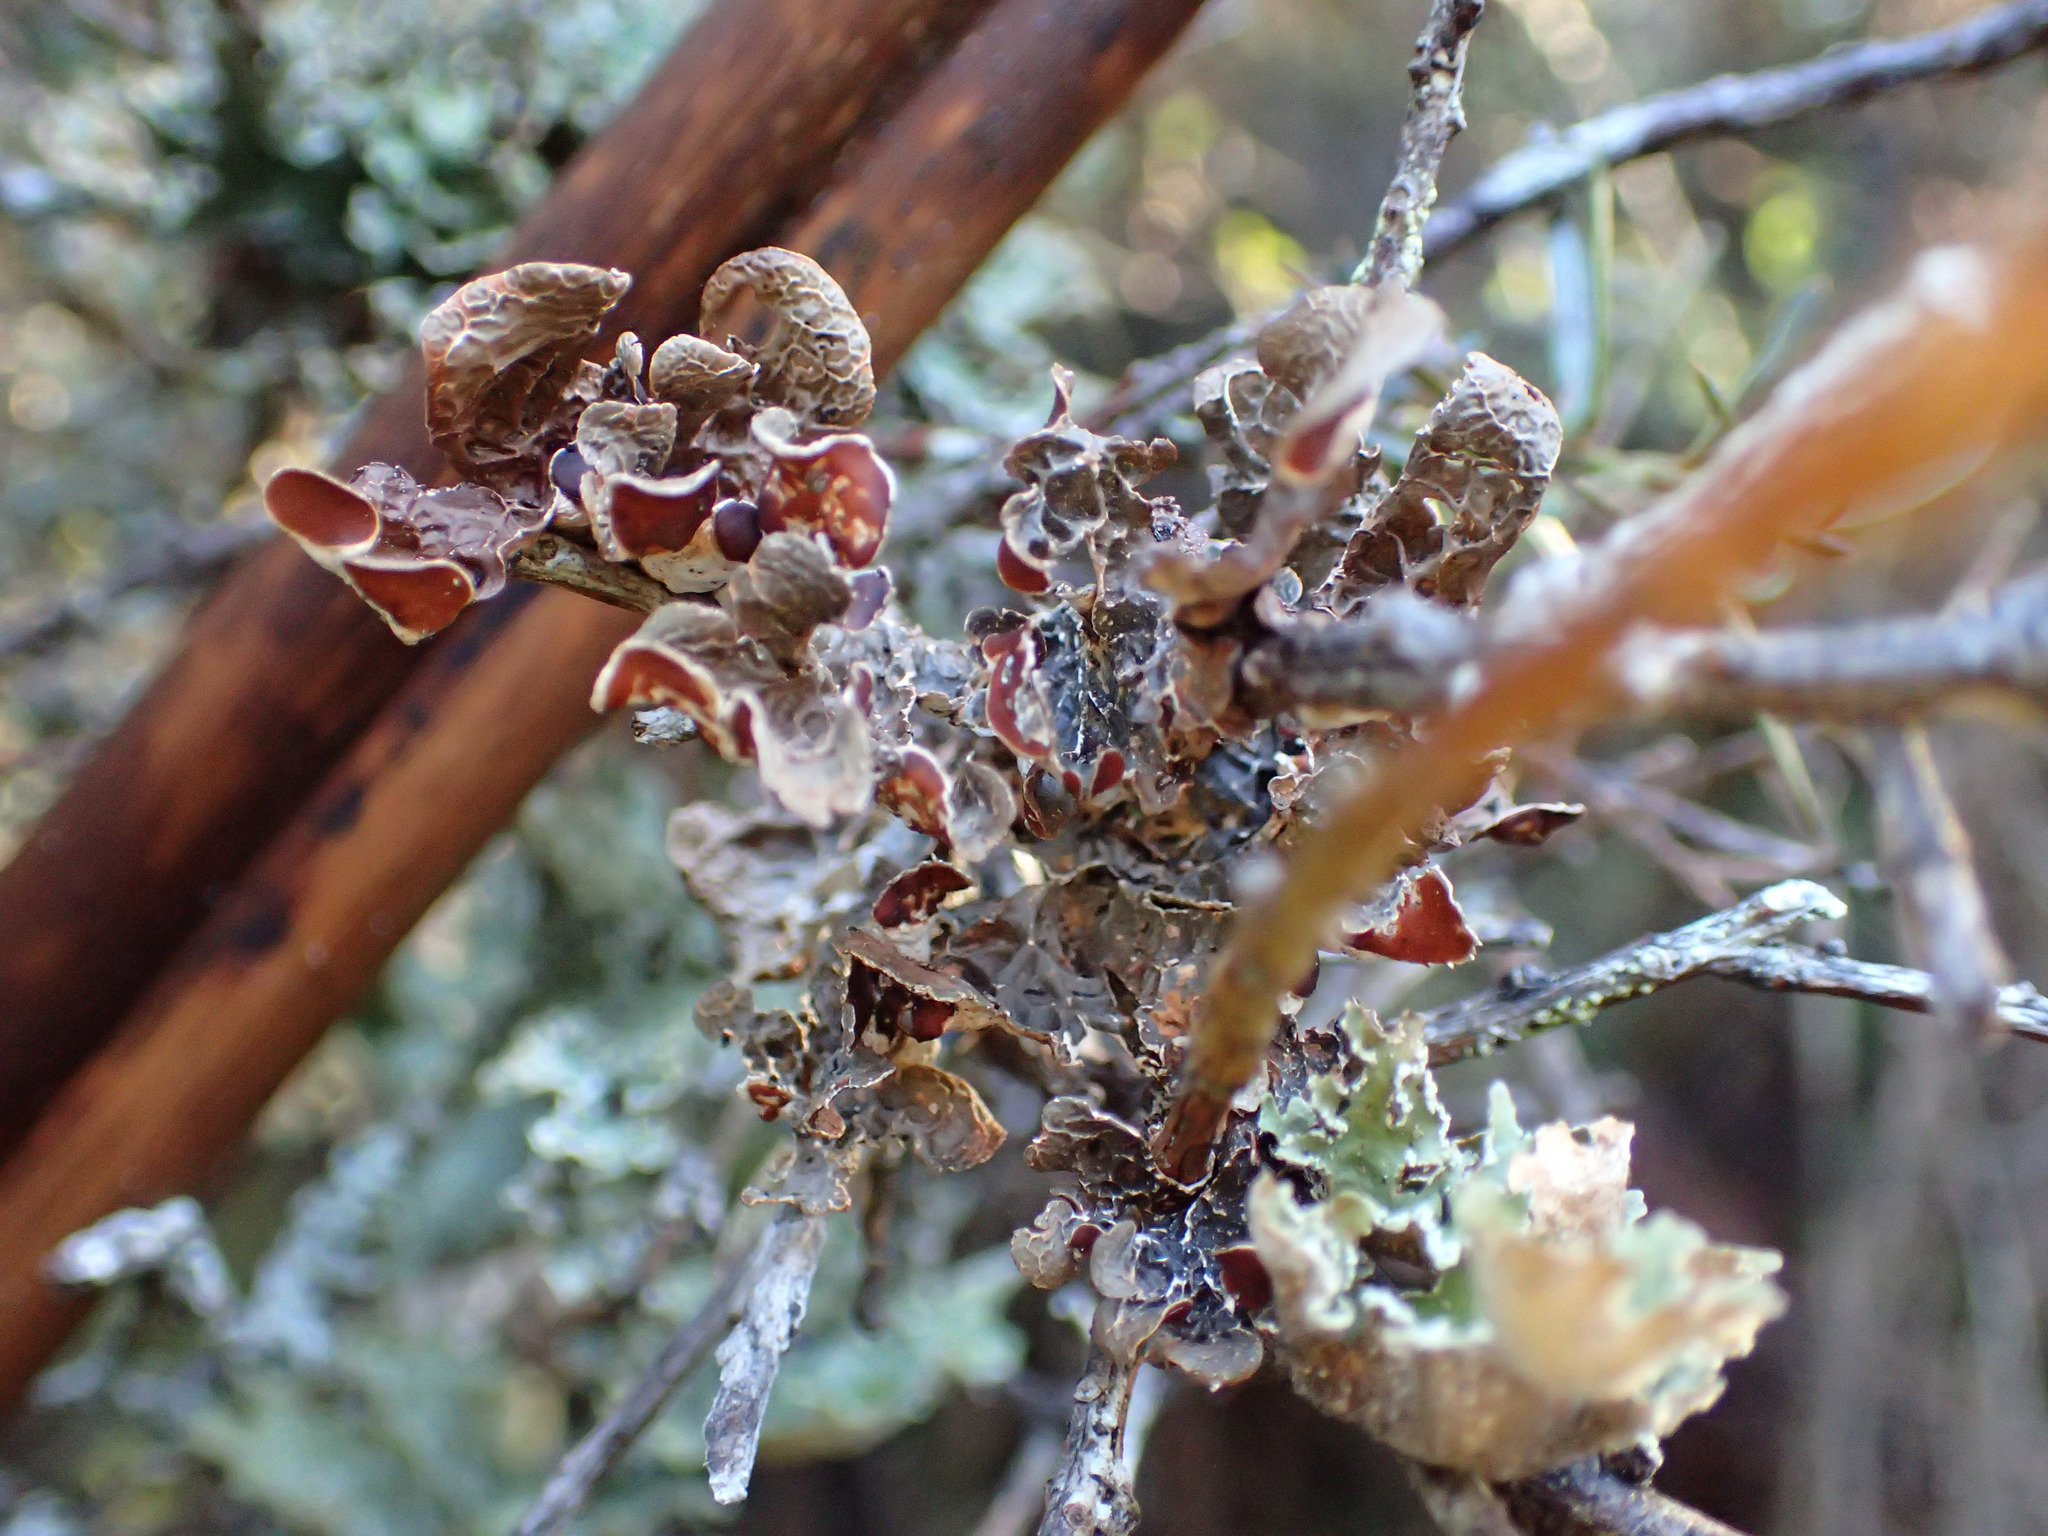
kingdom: Fungi
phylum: Ascomycota
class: Lecanoromycetes
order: Peltigerales
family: Nephromataceae
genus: Nephroma
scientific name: Nephroma cellulosum
